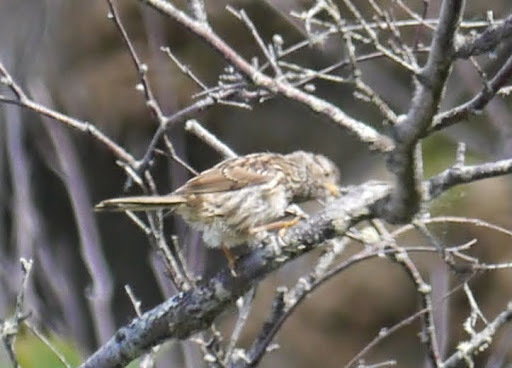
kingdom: Animalia
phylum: Chordata
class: Aves
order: Passeriformes
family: Passerellidae
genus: Zonotrichia
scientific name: Zonotrichia leucophrys
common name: White-crowned sparrow
